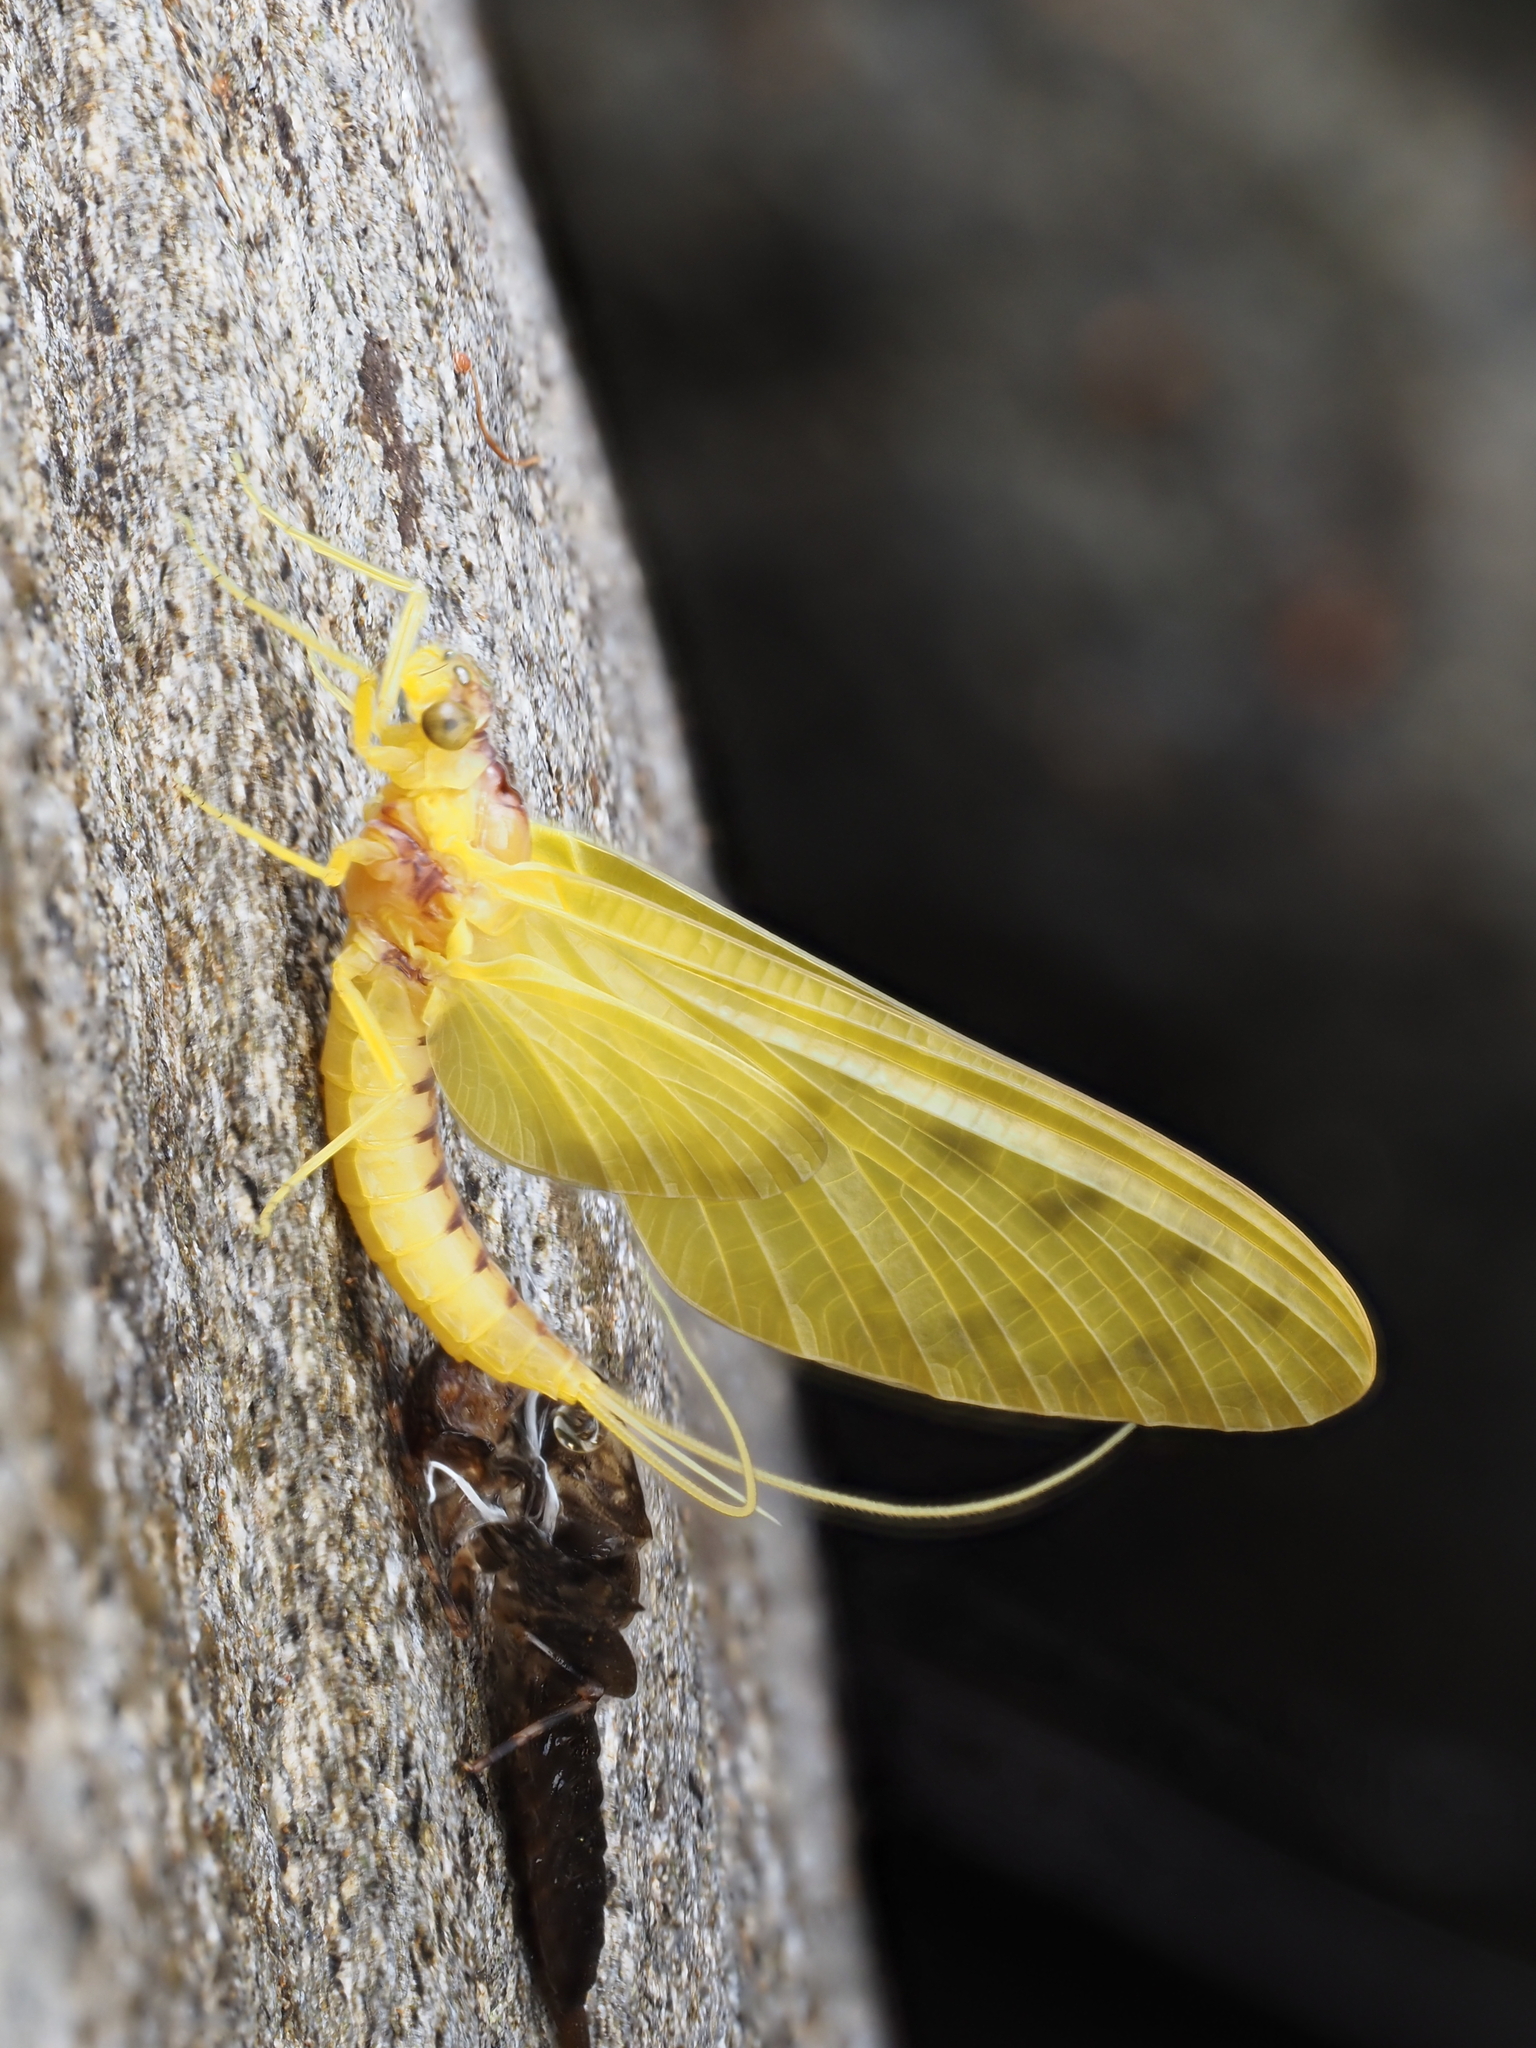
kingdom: Animalia
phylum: Arthropoda
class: Insecta
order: Ephemeroptera
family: Ameletopsidae
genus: Ameletopsis
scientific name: Ameletopsis perscitus
